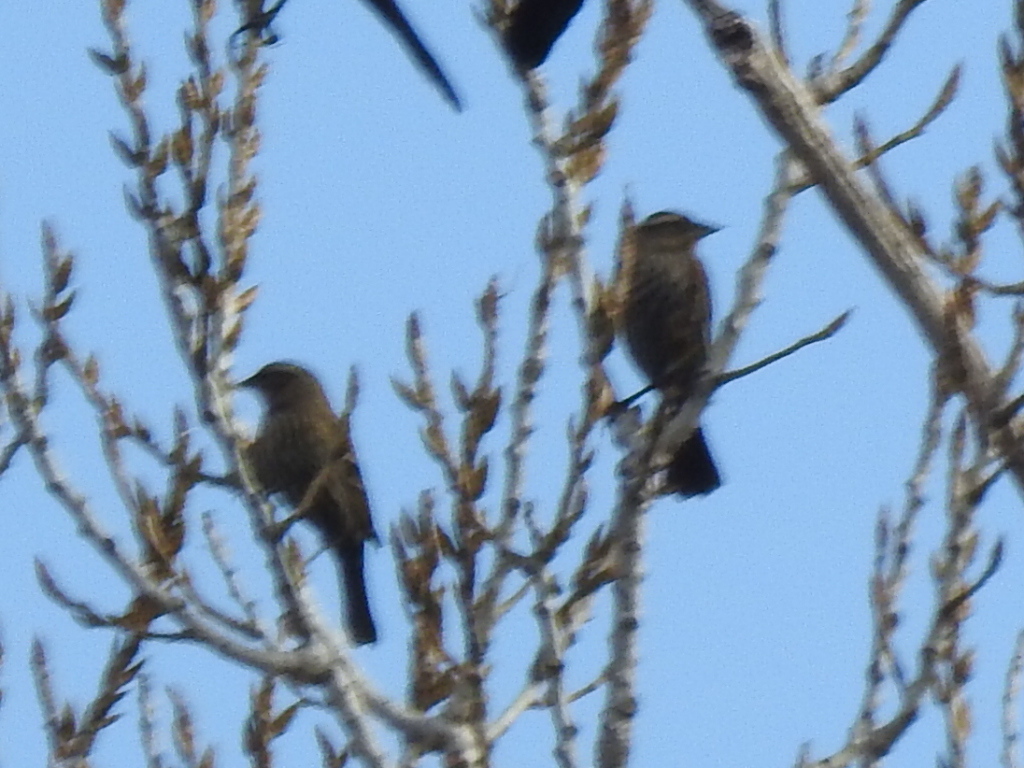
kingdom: Animalia
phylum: Chordata
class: Aves
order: Passeriformes
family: Icteridae
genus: Agelaius
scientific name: Agelaius phoeniceus
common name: Red-winged blackbird
